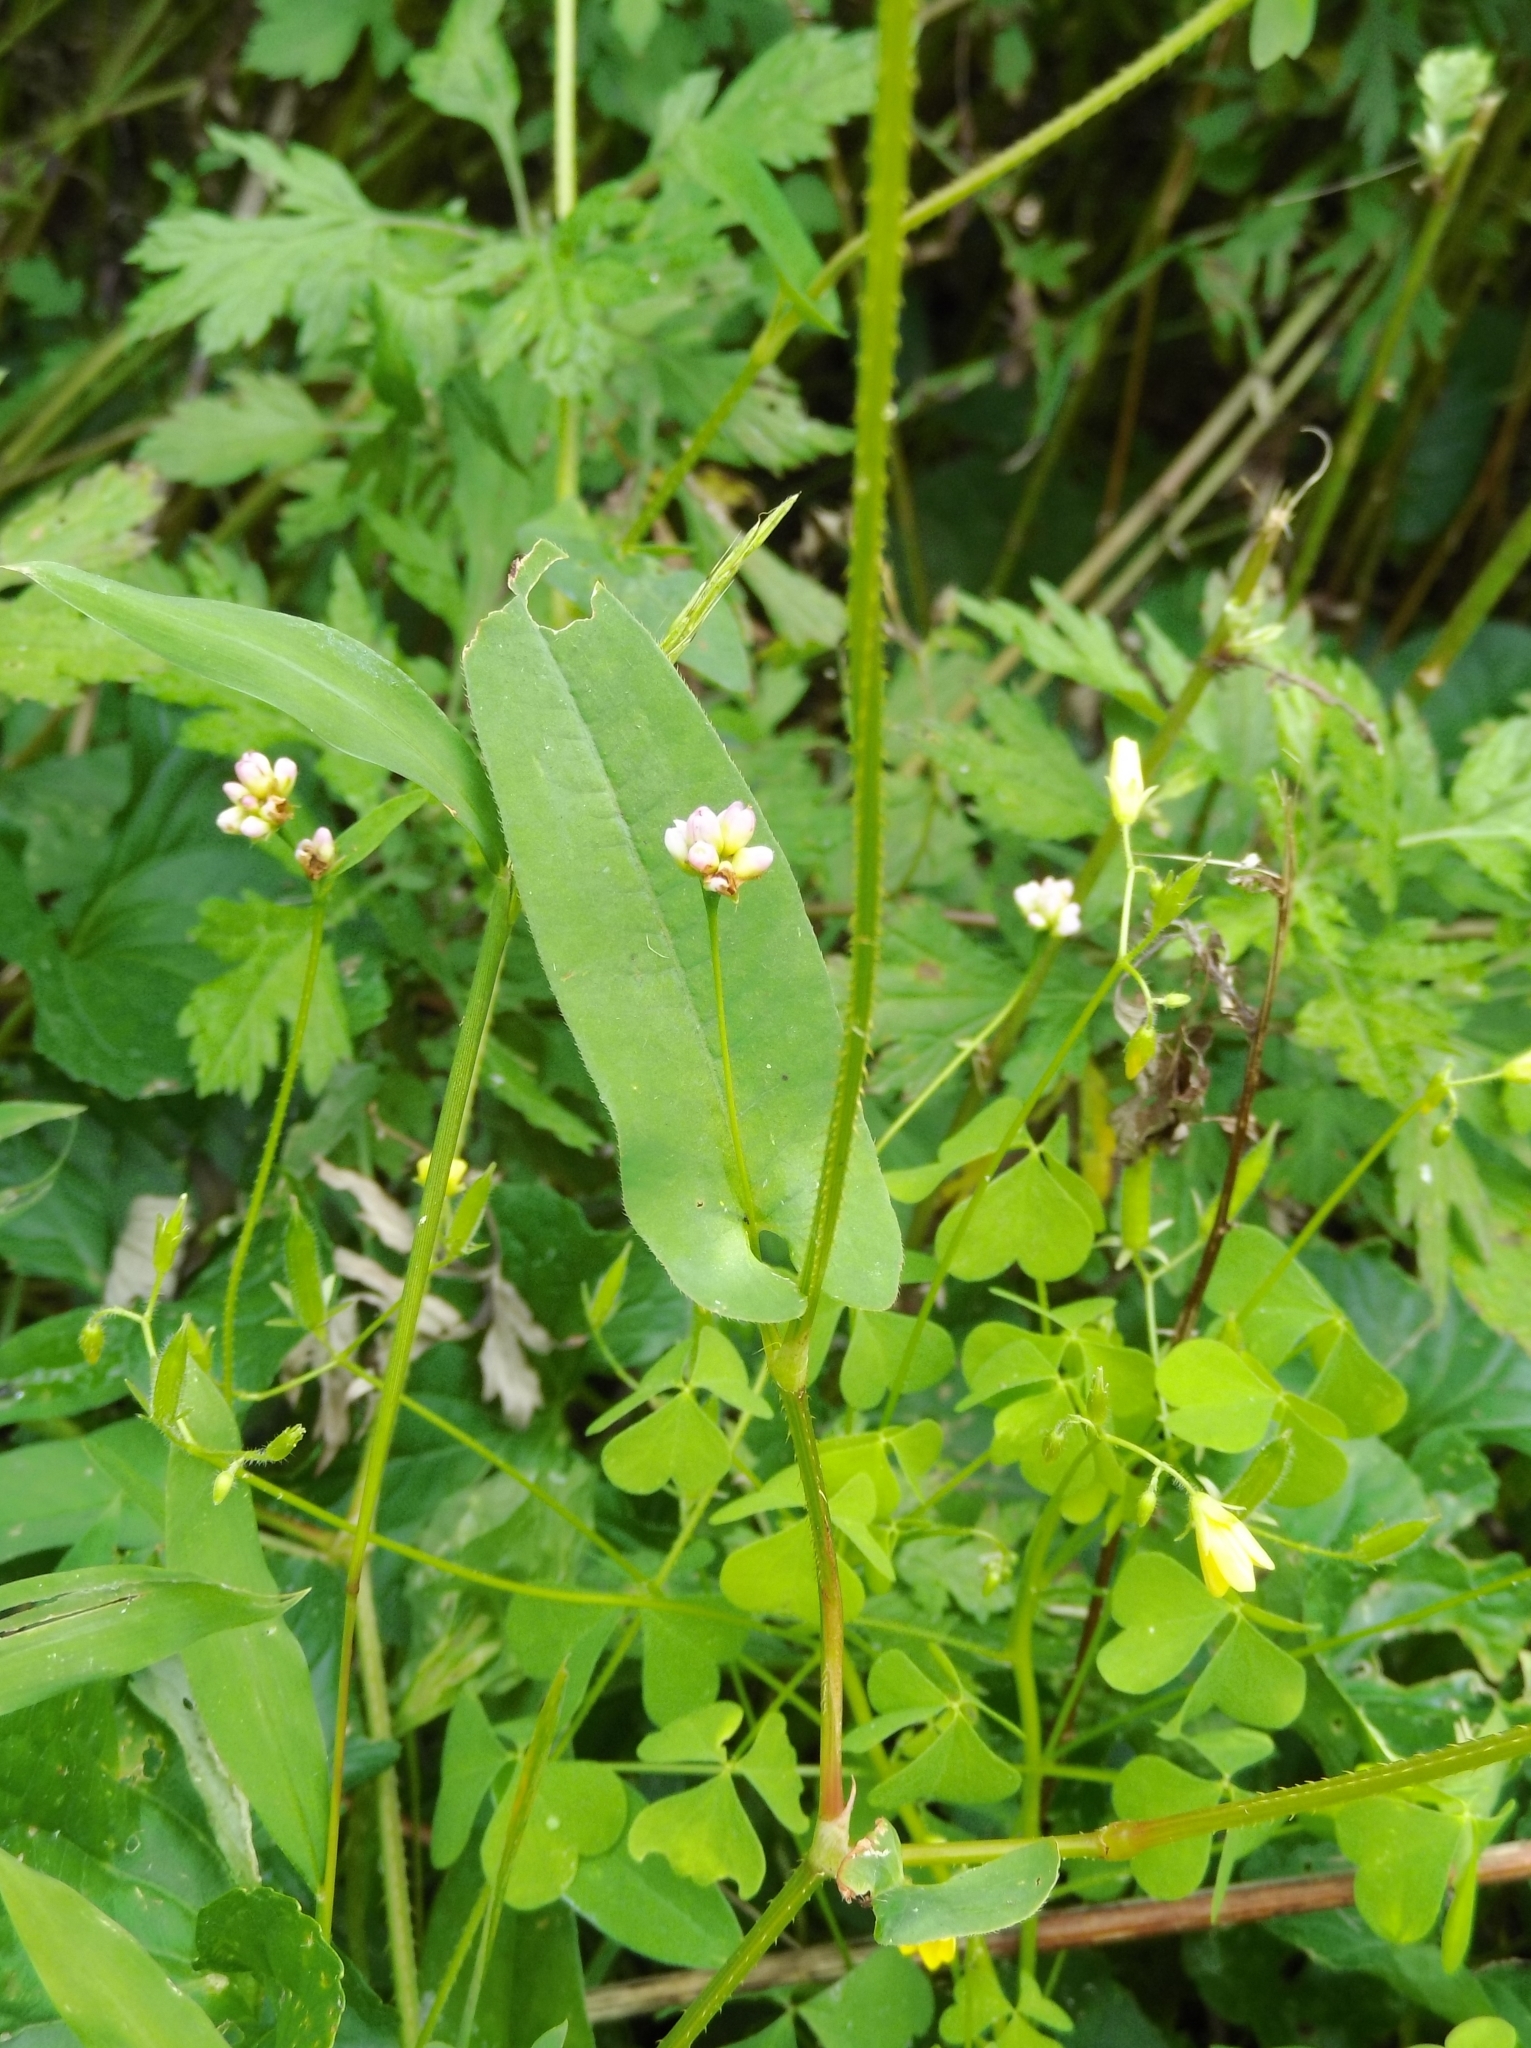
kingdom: Plantae
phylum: Tracheophyta
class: Magnoliopsida
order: Caryophyllales
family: Polygonaceae
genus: Persicaria
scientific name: Persicaria sagittata
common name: American tearthumb
